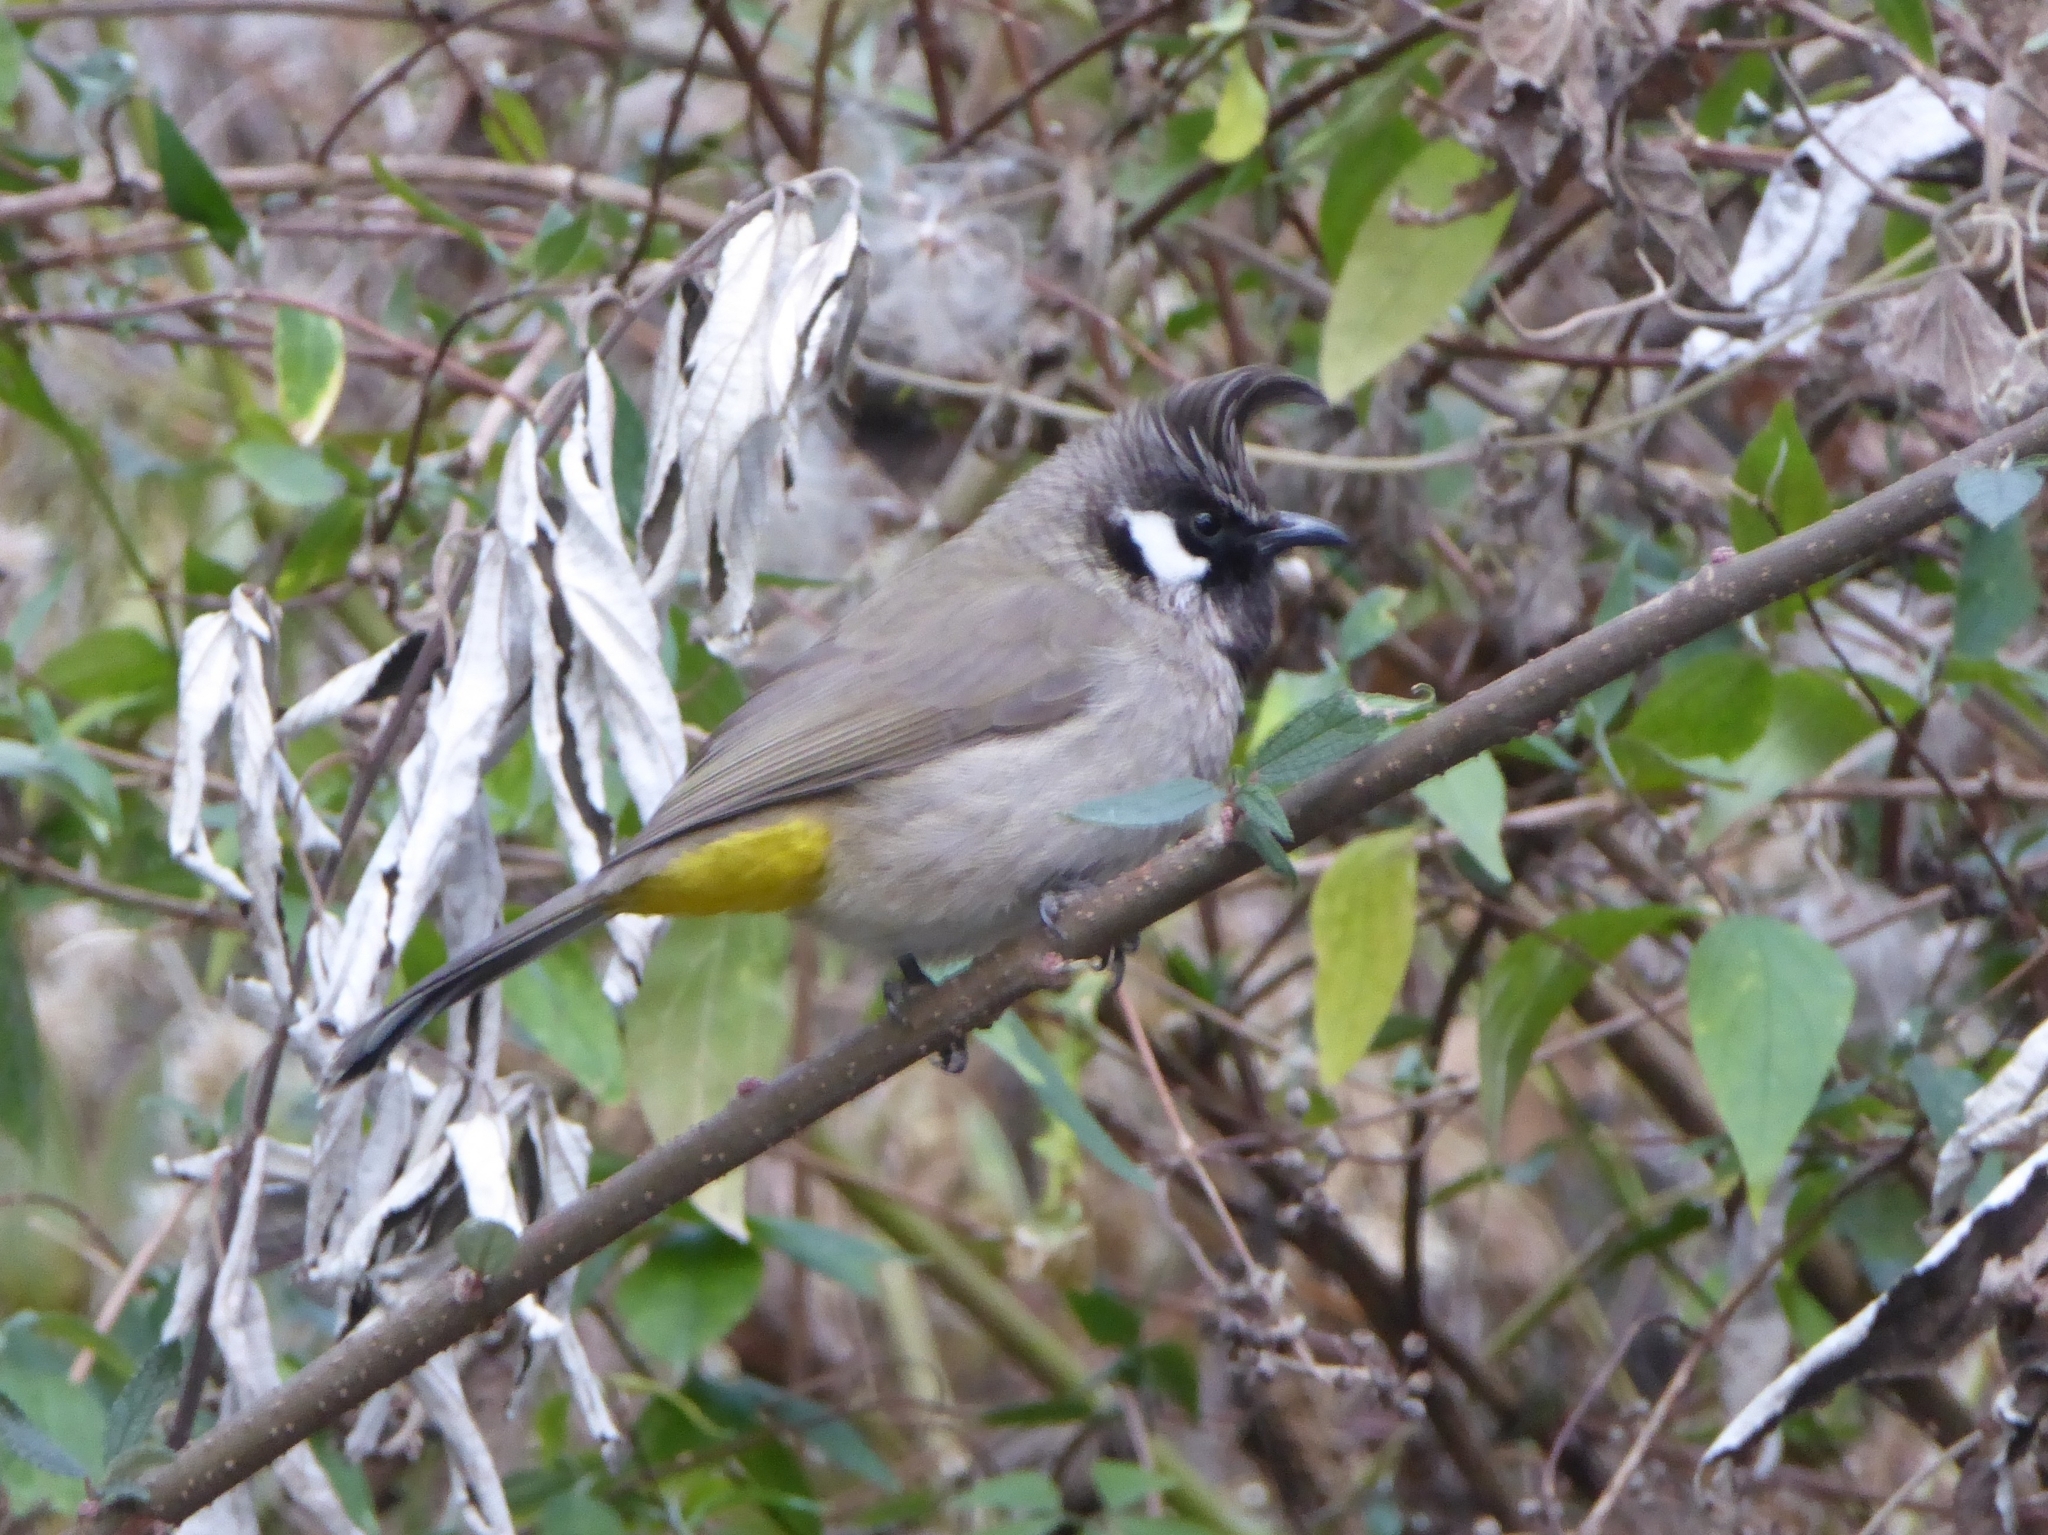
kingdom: Animalia
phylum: Chordata
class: Aves
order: Passeriformes
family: Pycnonotidae
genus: Pycnonotus
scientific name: Pycnonotus leucogenys
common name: Himalayan bulbul
